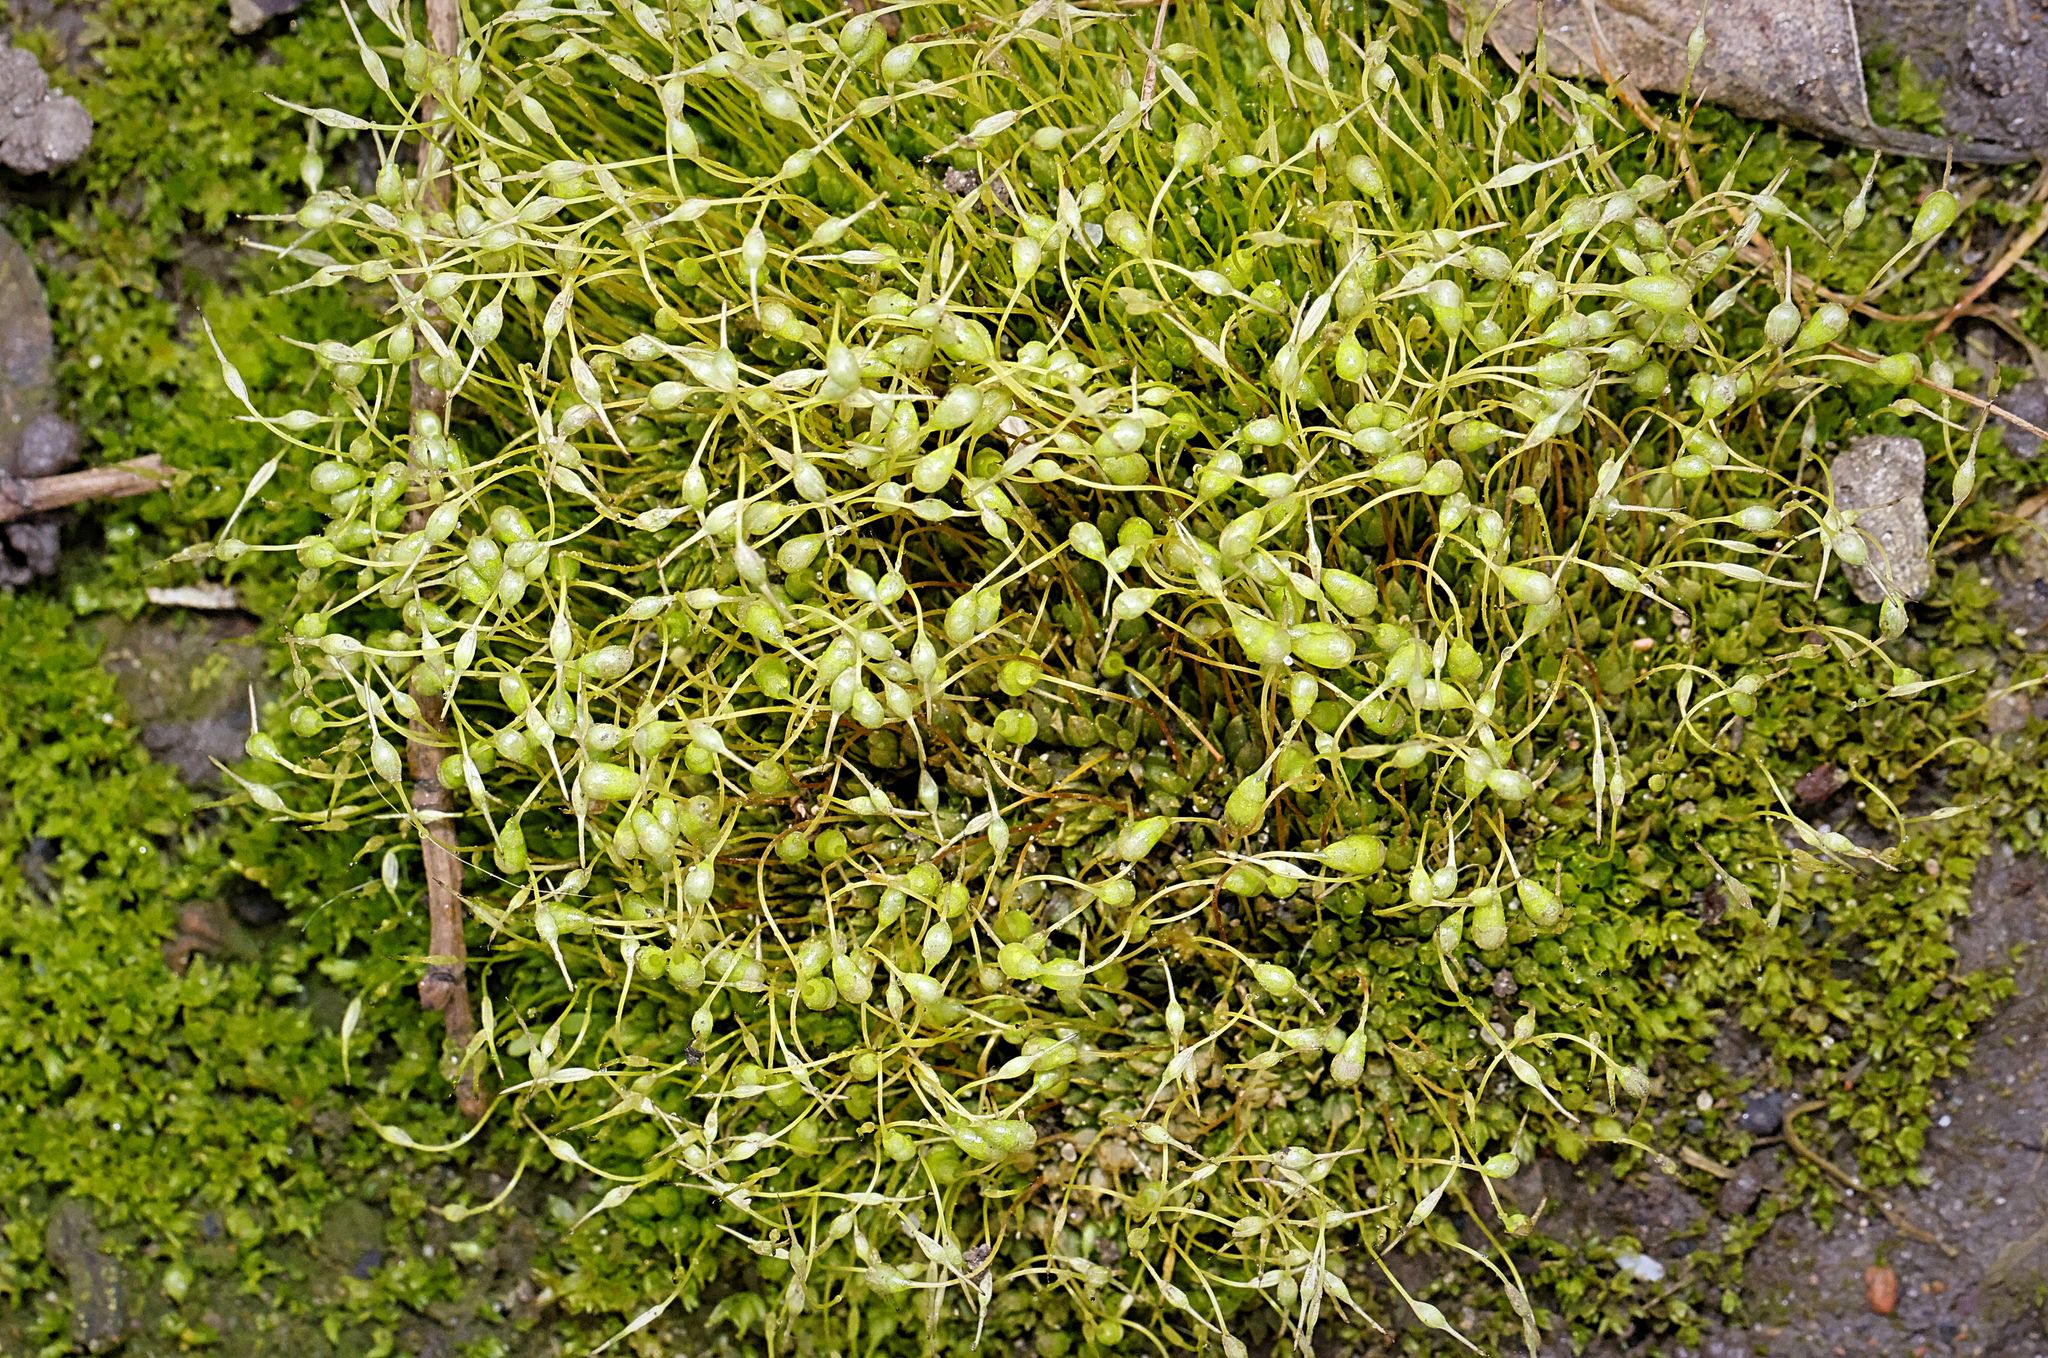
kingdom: Plantae
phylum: Bryophyta
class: Bryopsida
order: Funariales
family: Funariaceae
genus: Funaria
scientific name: Funaria hygrometrica
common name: Common cord moss
